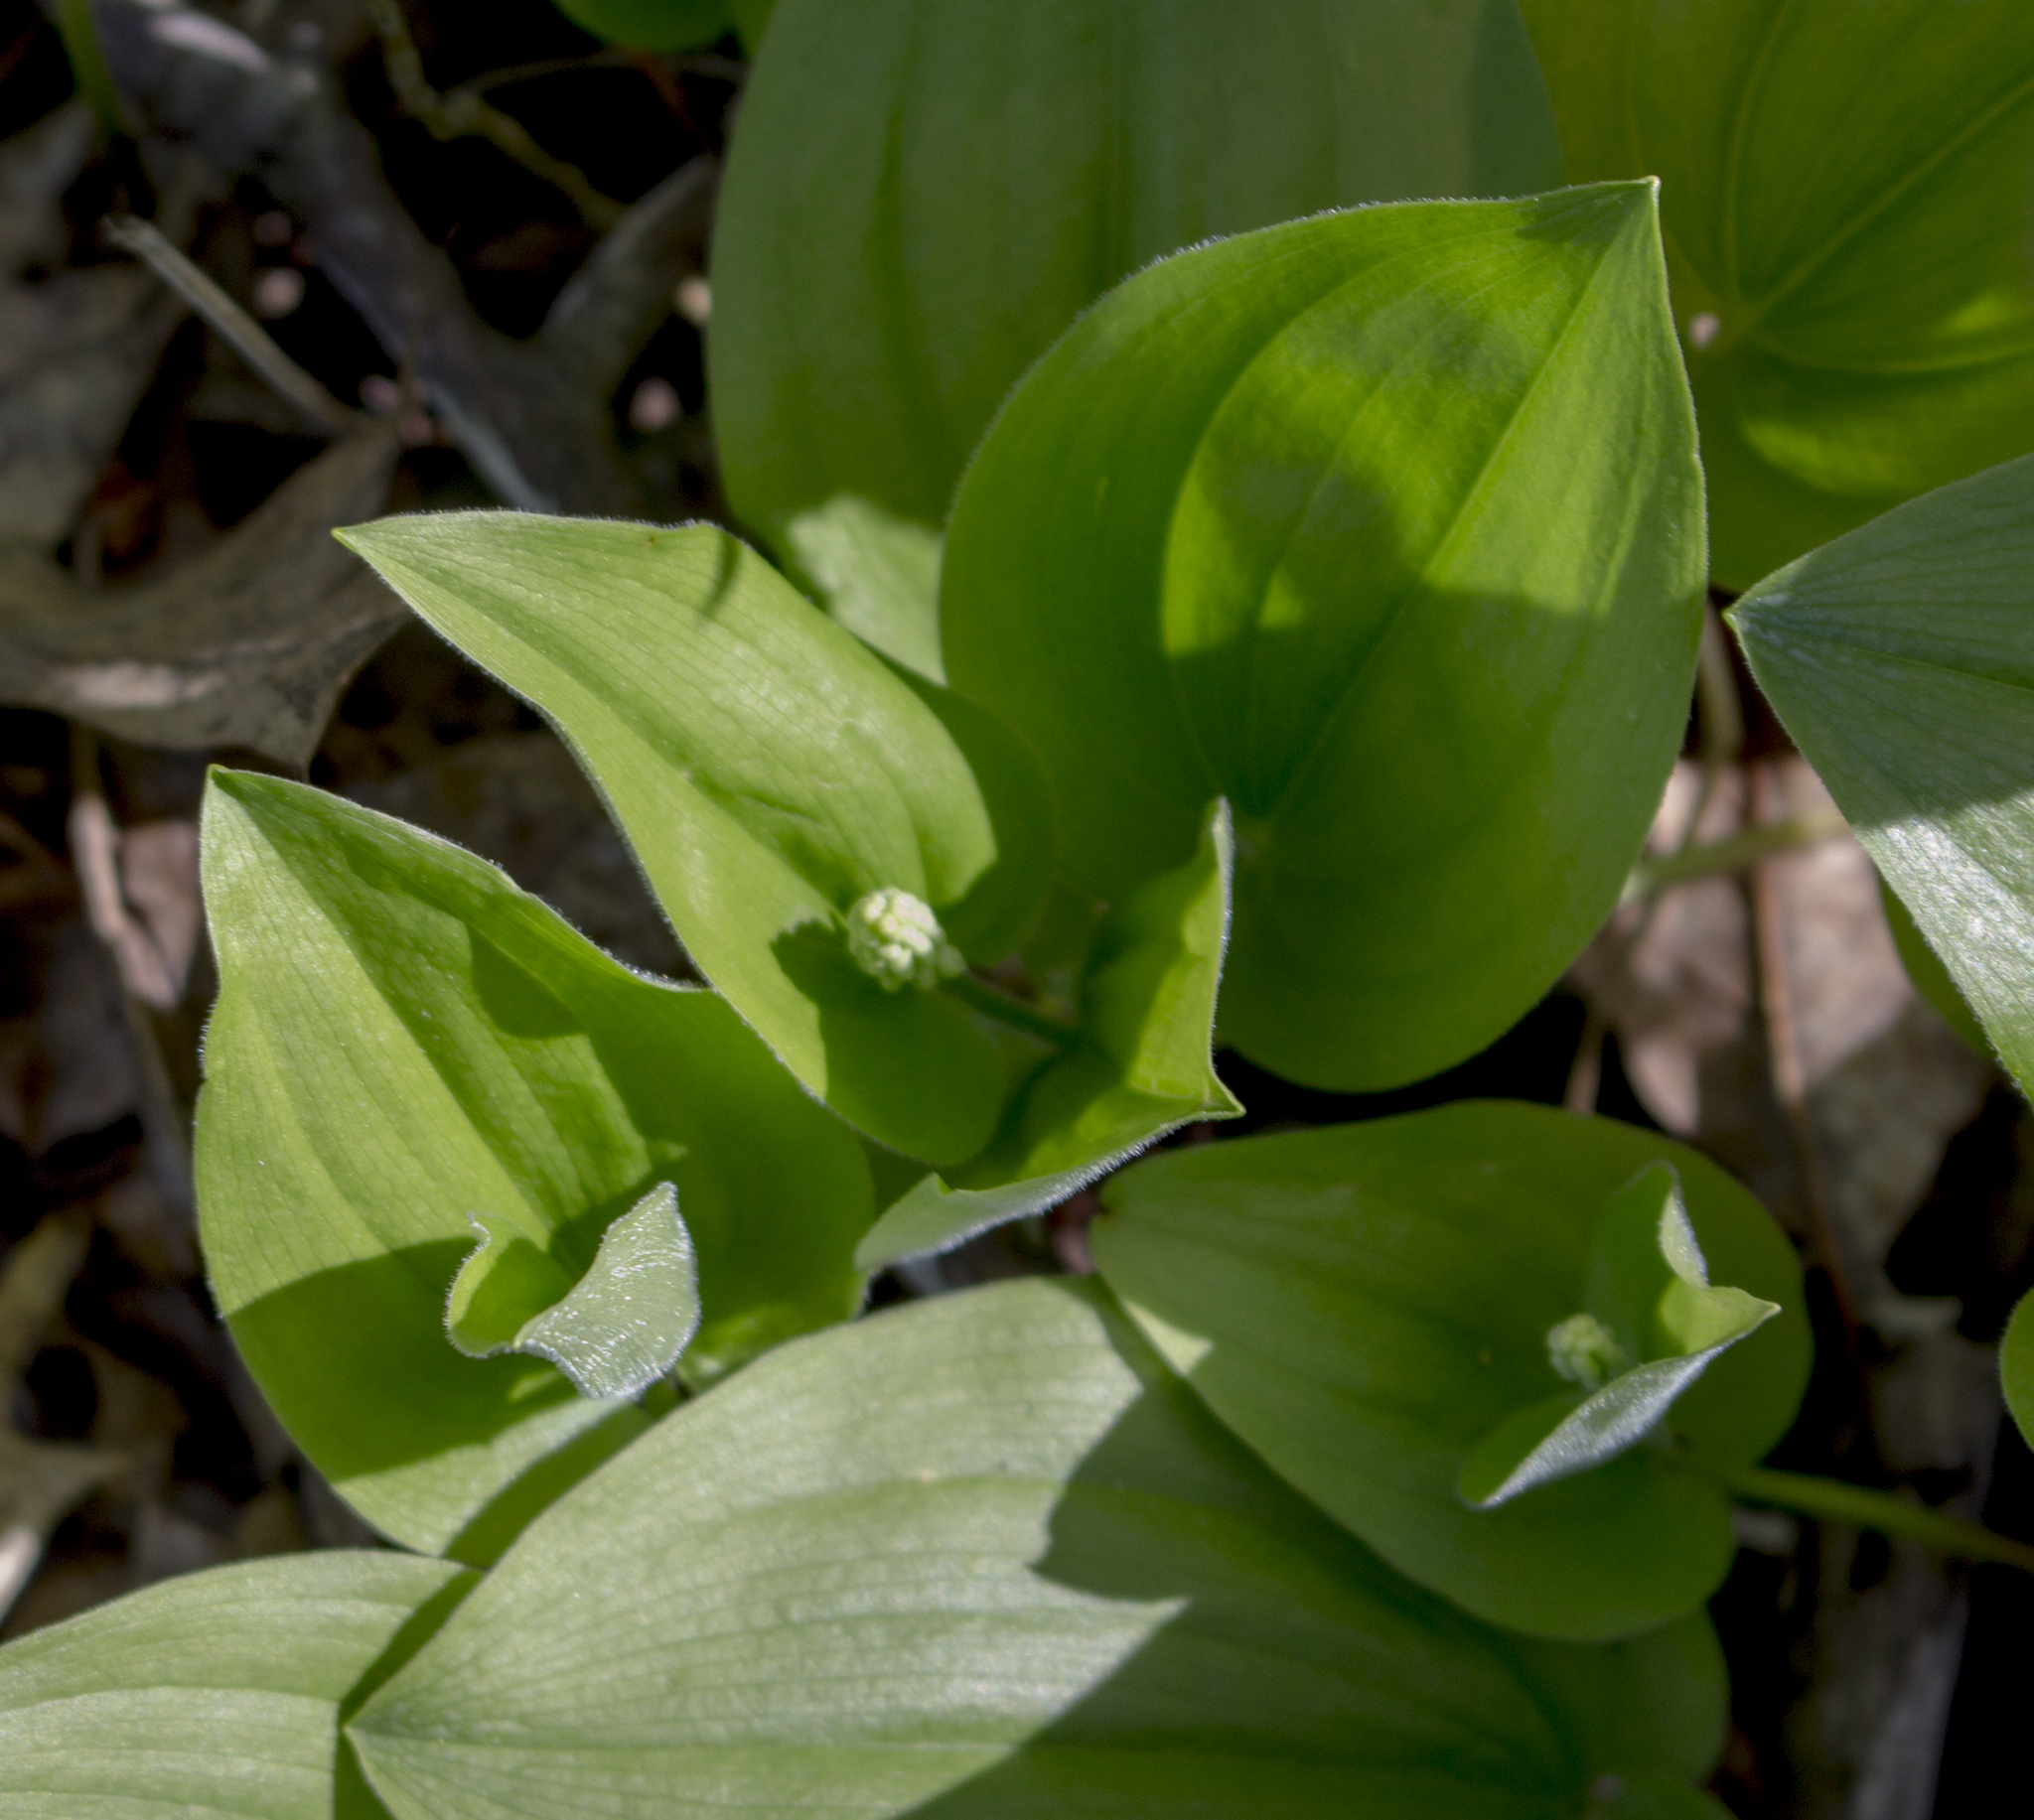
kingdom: Plantae
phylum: Tracheophyta
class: Liliopsida
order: Asparagales
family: Asparagaceae
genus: Maianthemum
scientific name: Maianthemum canadense
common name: False lily-of-the-valley
